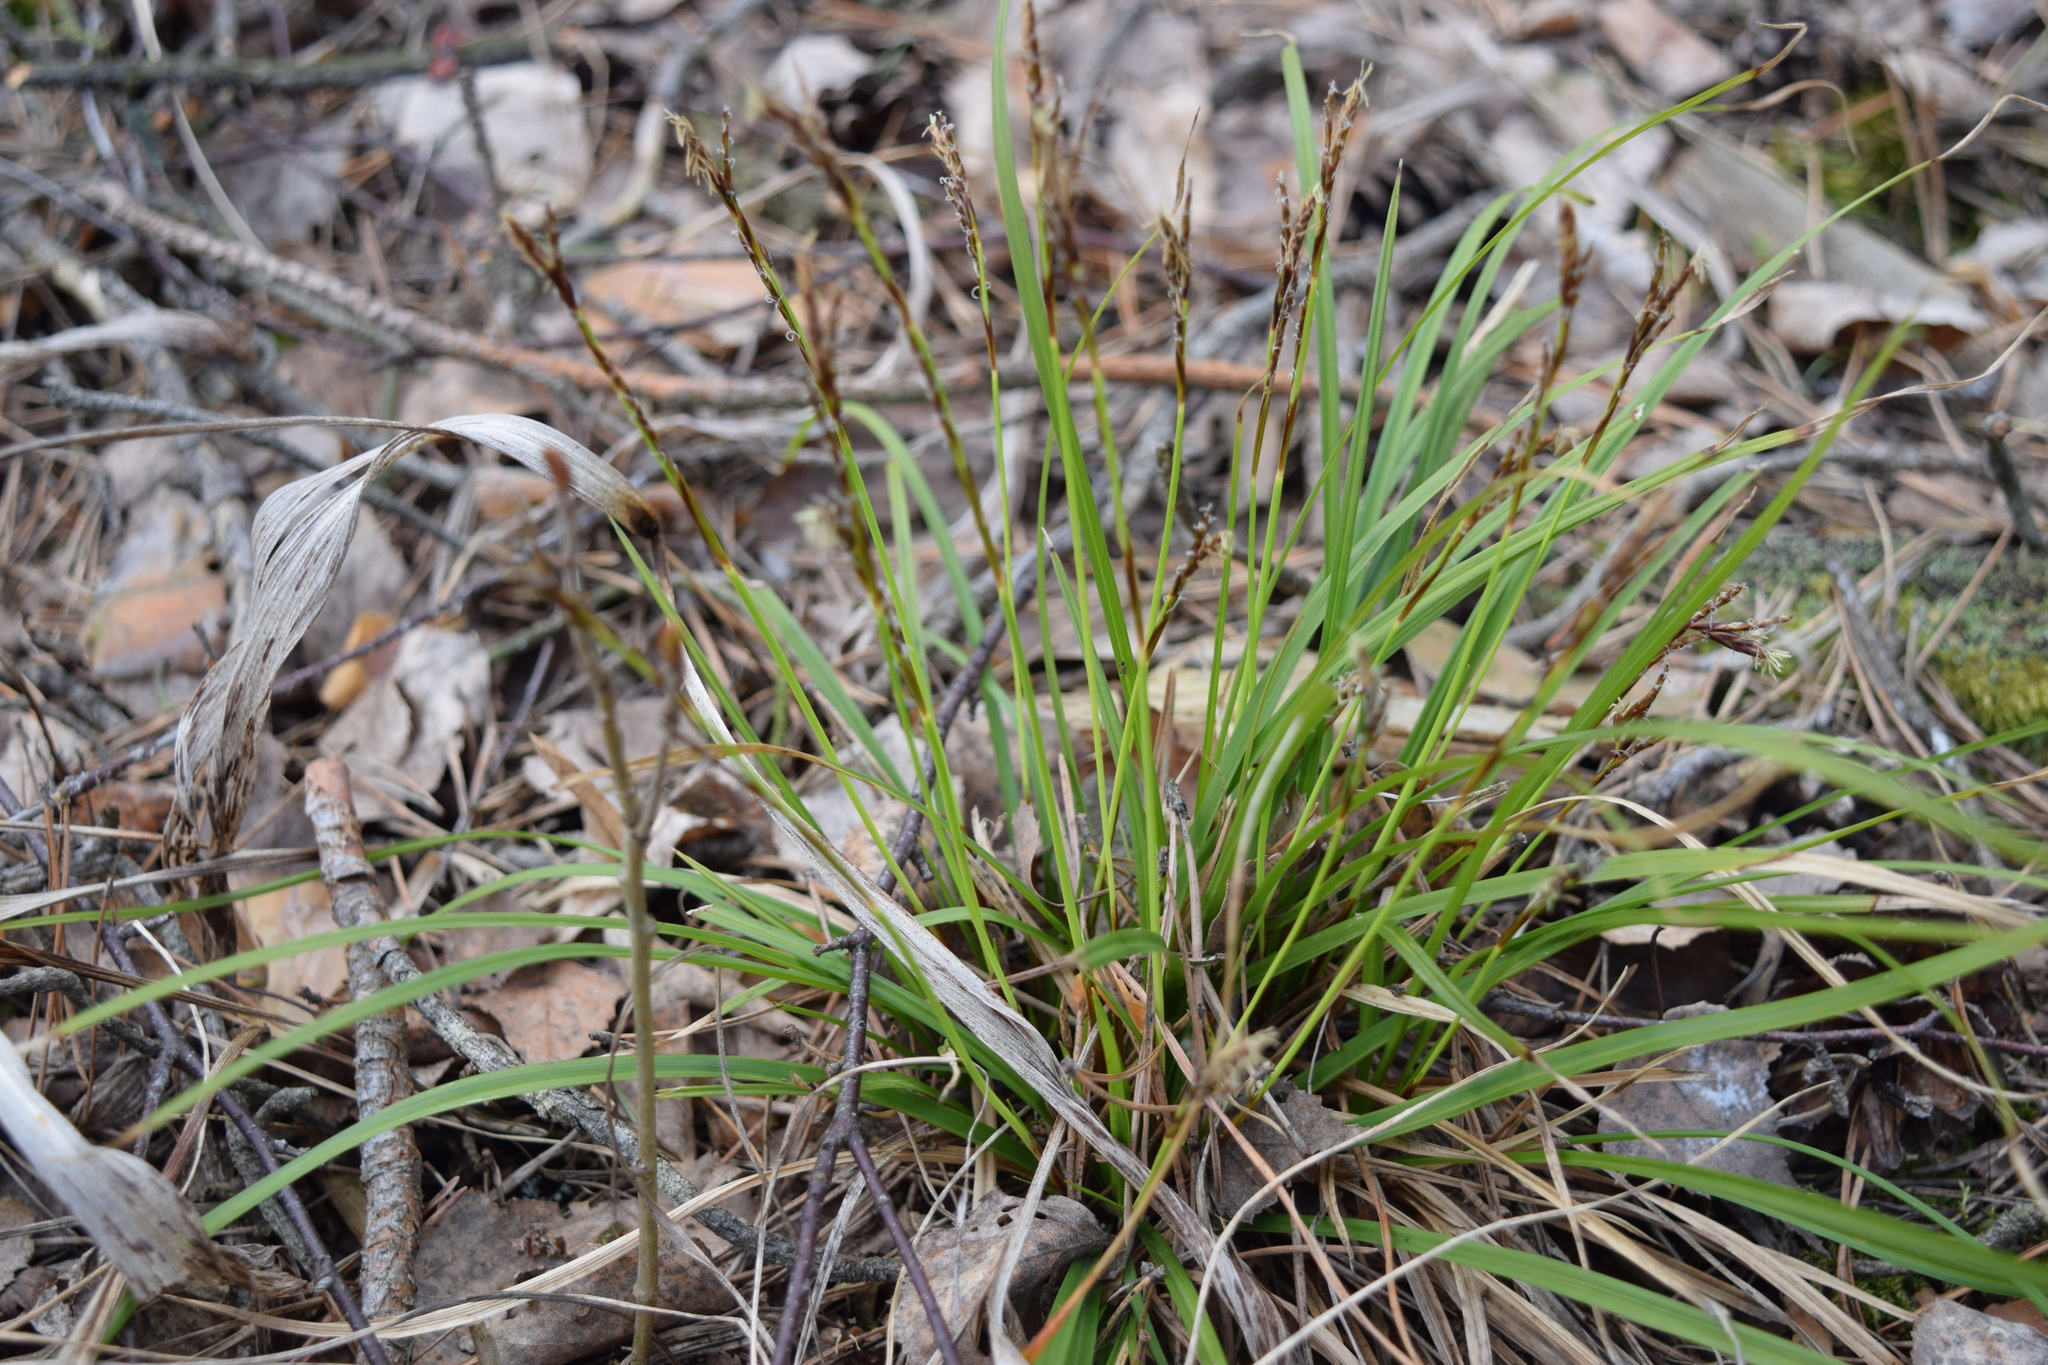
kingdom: Plantae
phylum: Tracheophyta
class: Liliopsida
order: Poales
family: Cyperaceae
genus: Carex
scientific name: Carex digitata
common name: Fingered sedge
